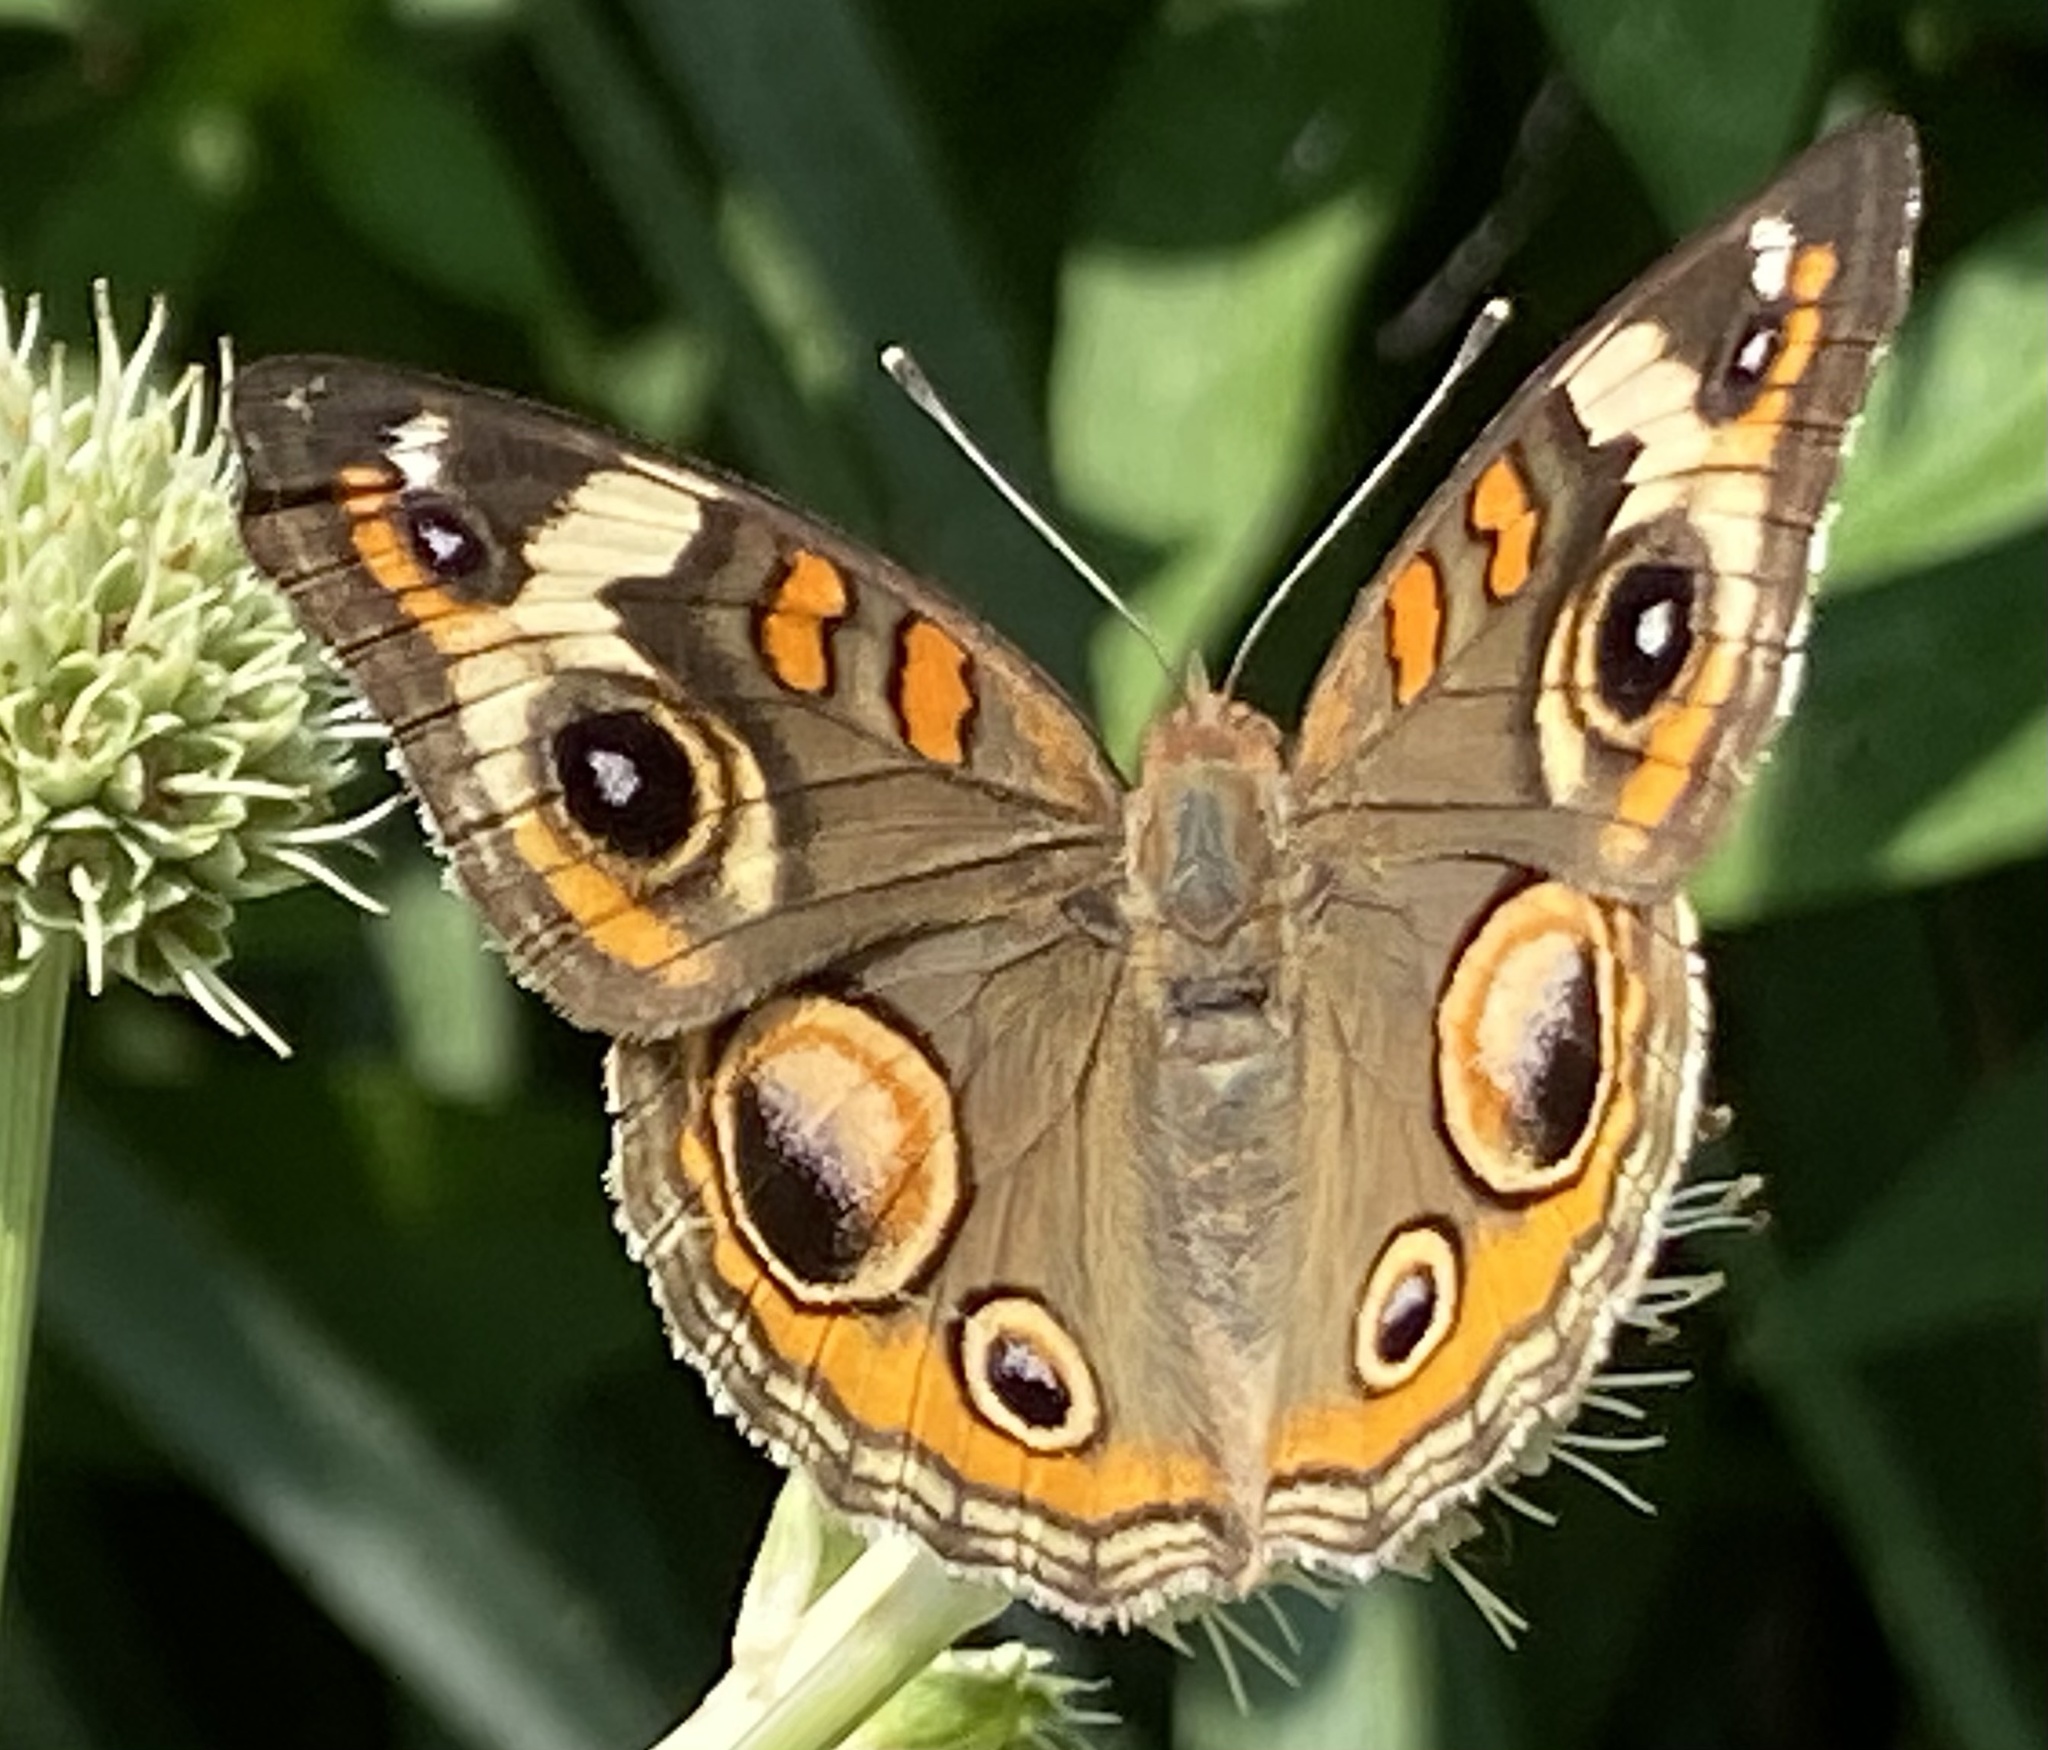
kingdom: Animalia
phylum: Arthropoda
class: Insecta
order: Lepidoptera
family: Nymphalidae
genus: Junonia
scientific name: Junonia coenia
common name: Common buckeye
